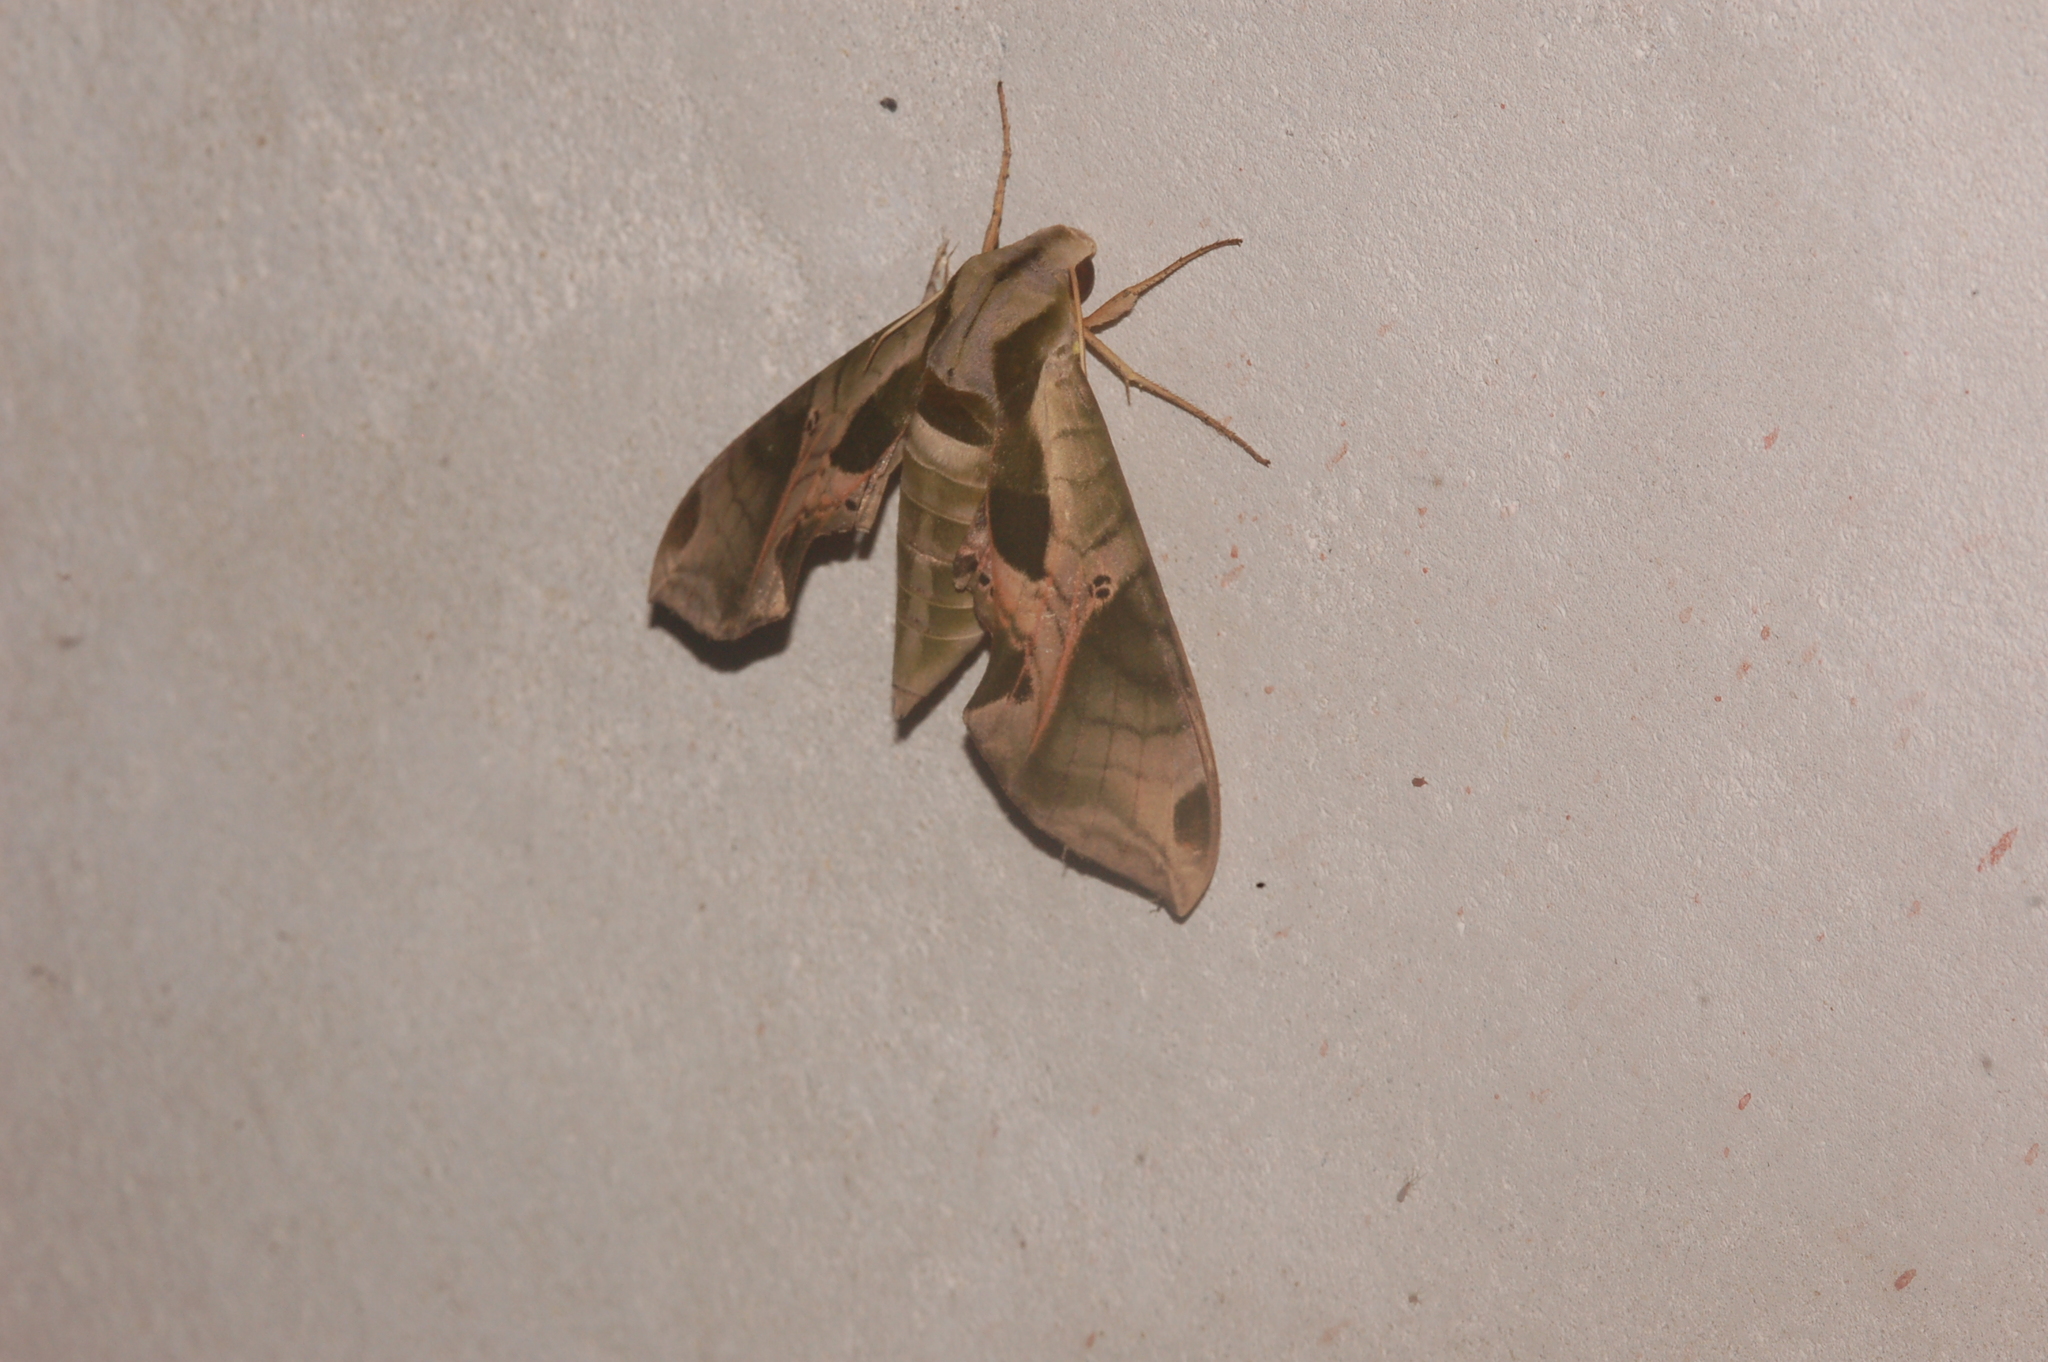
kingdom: Animalia
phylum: Arthropoda
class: Insecta
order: Lepidoptera
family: Sphingidae
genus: Eumorpha
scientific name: Eumorpha pandorus
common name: Pandora sphinx
